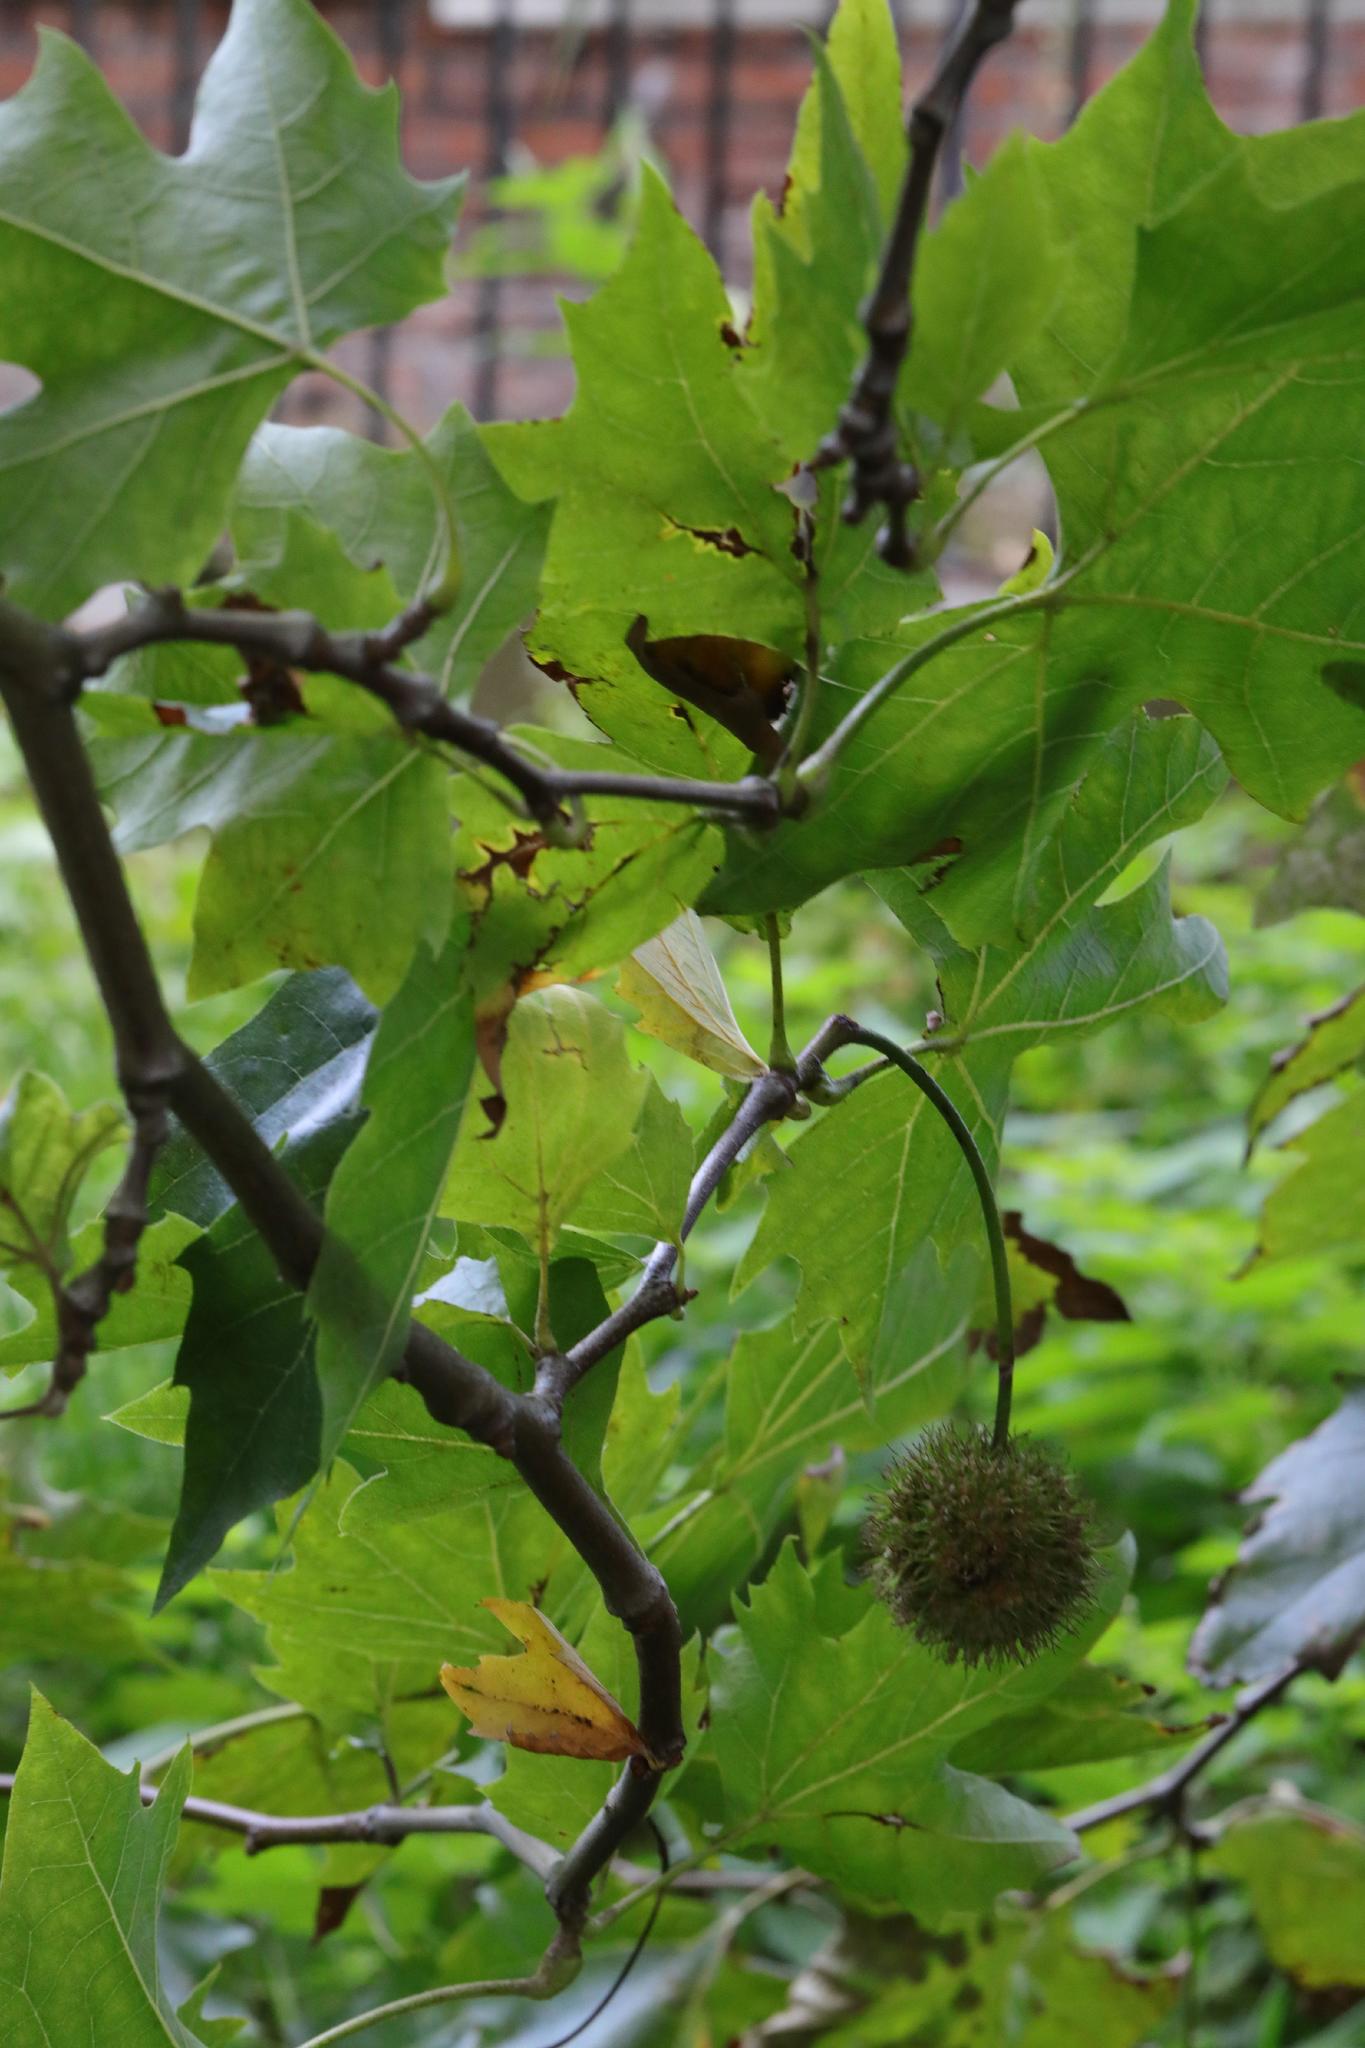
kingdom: Plantae
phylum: Tracheophyta
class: Magnoliopsida
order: Proteales
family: Platanaceae
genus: Platanus
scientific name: Platanus hispanica
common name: London plane
